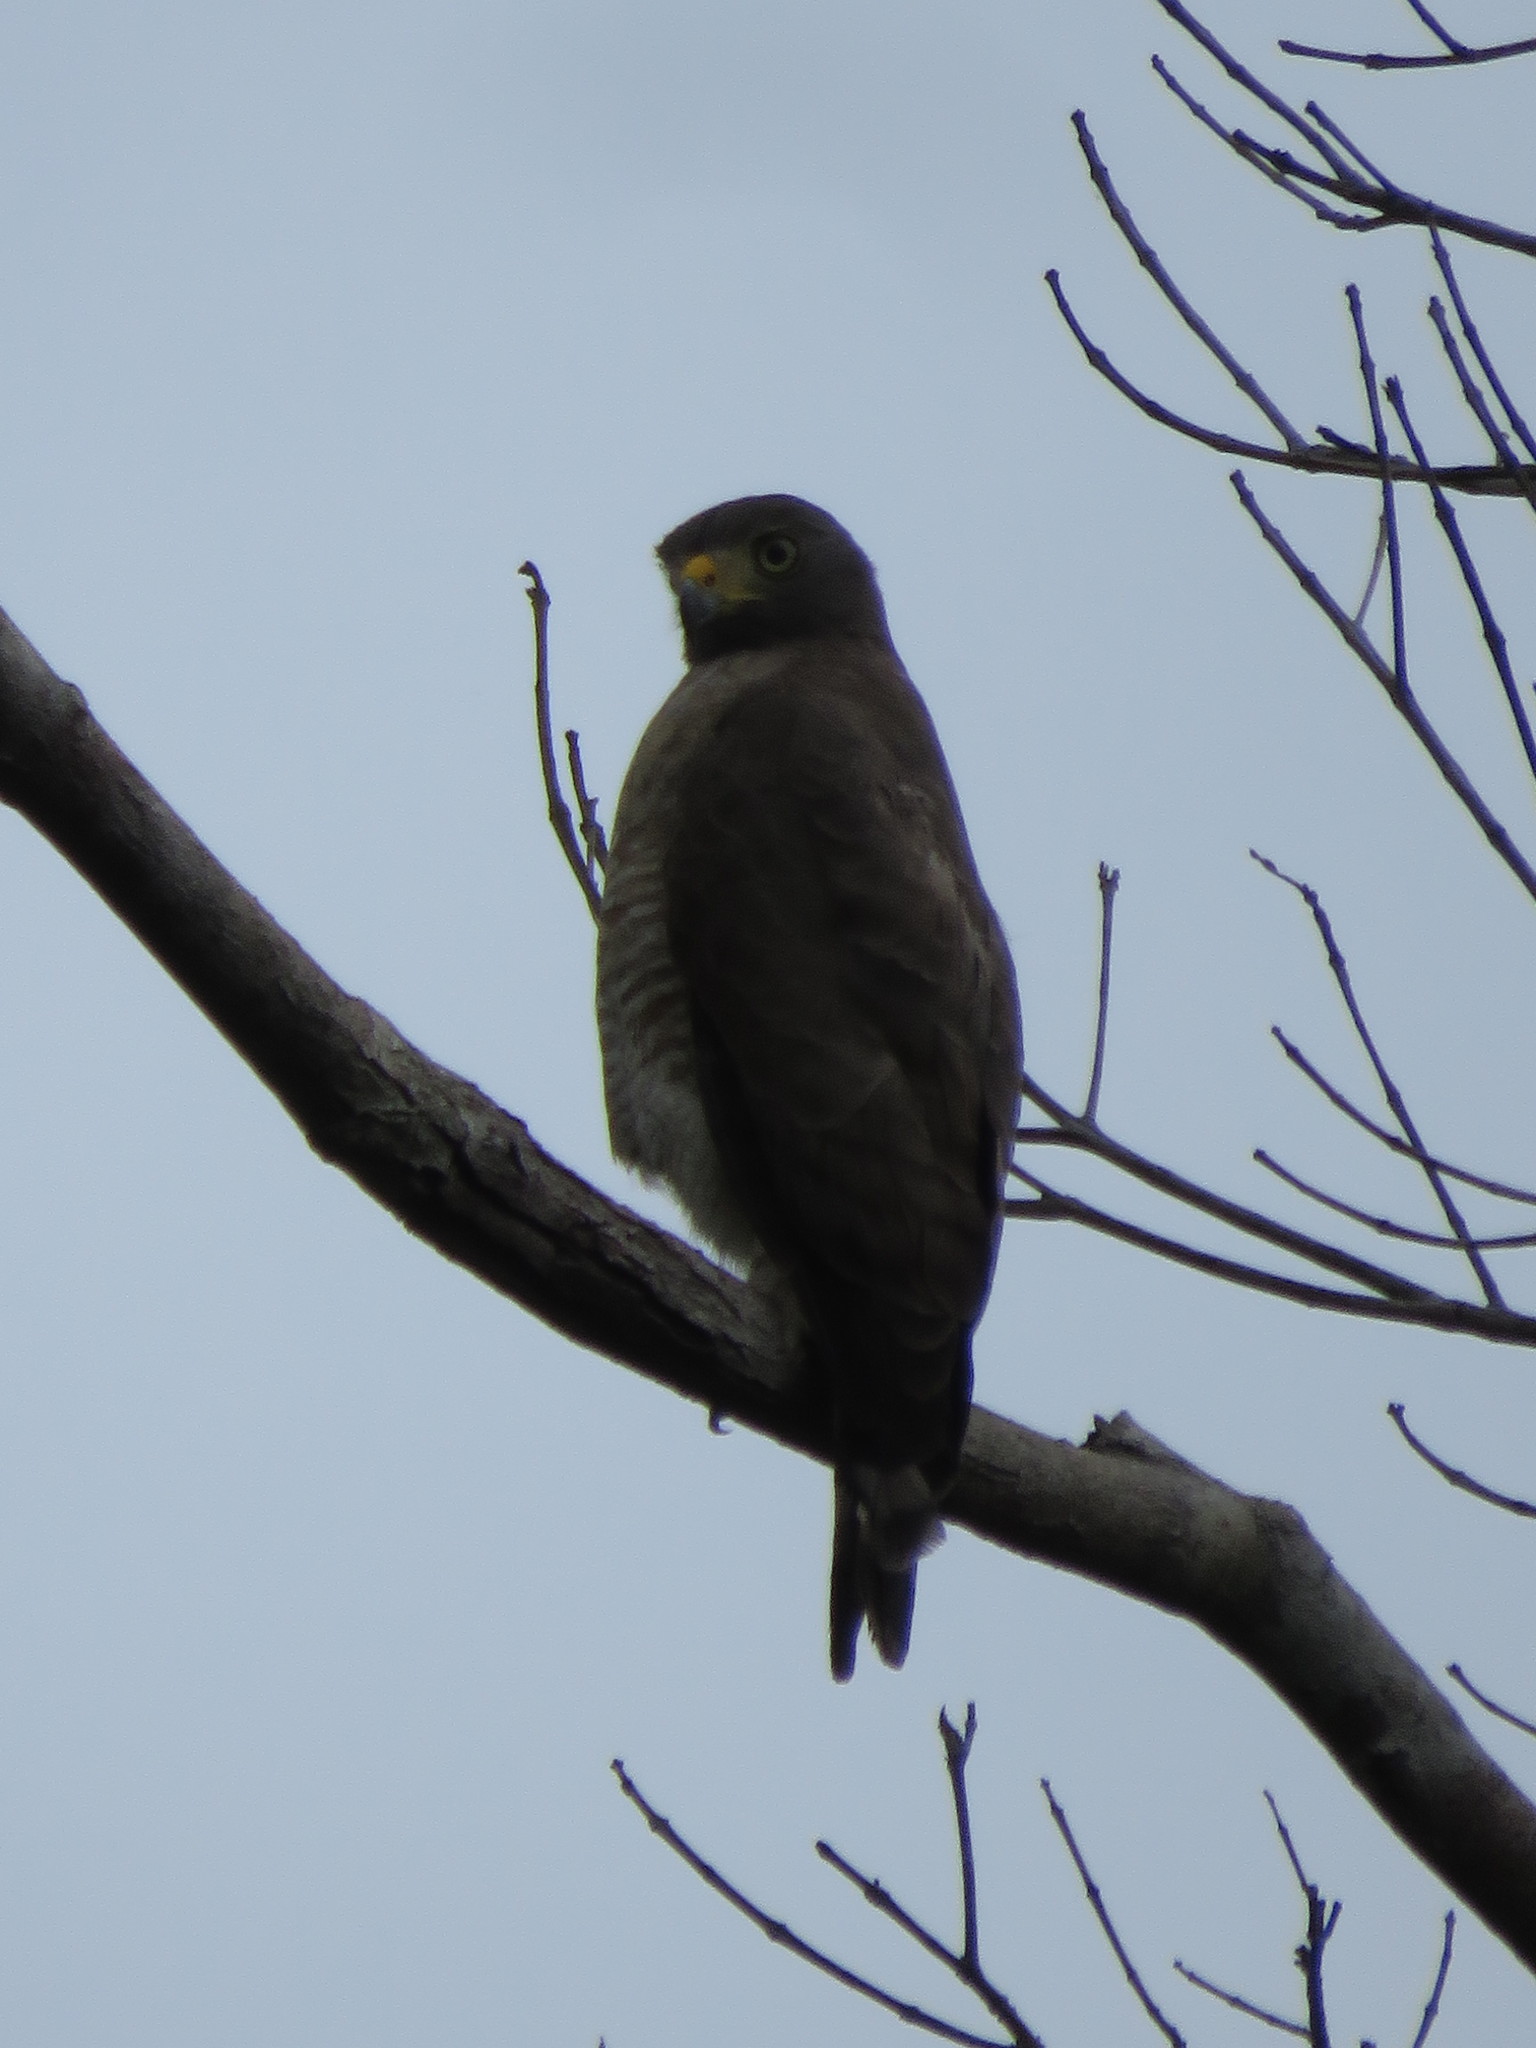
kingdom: Animalia
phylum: Chordata
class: Aves
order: Accipitriformes
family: Accipitridae
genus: Rupornis
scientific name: Rupornis magnirostris
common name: Roadside hawk
